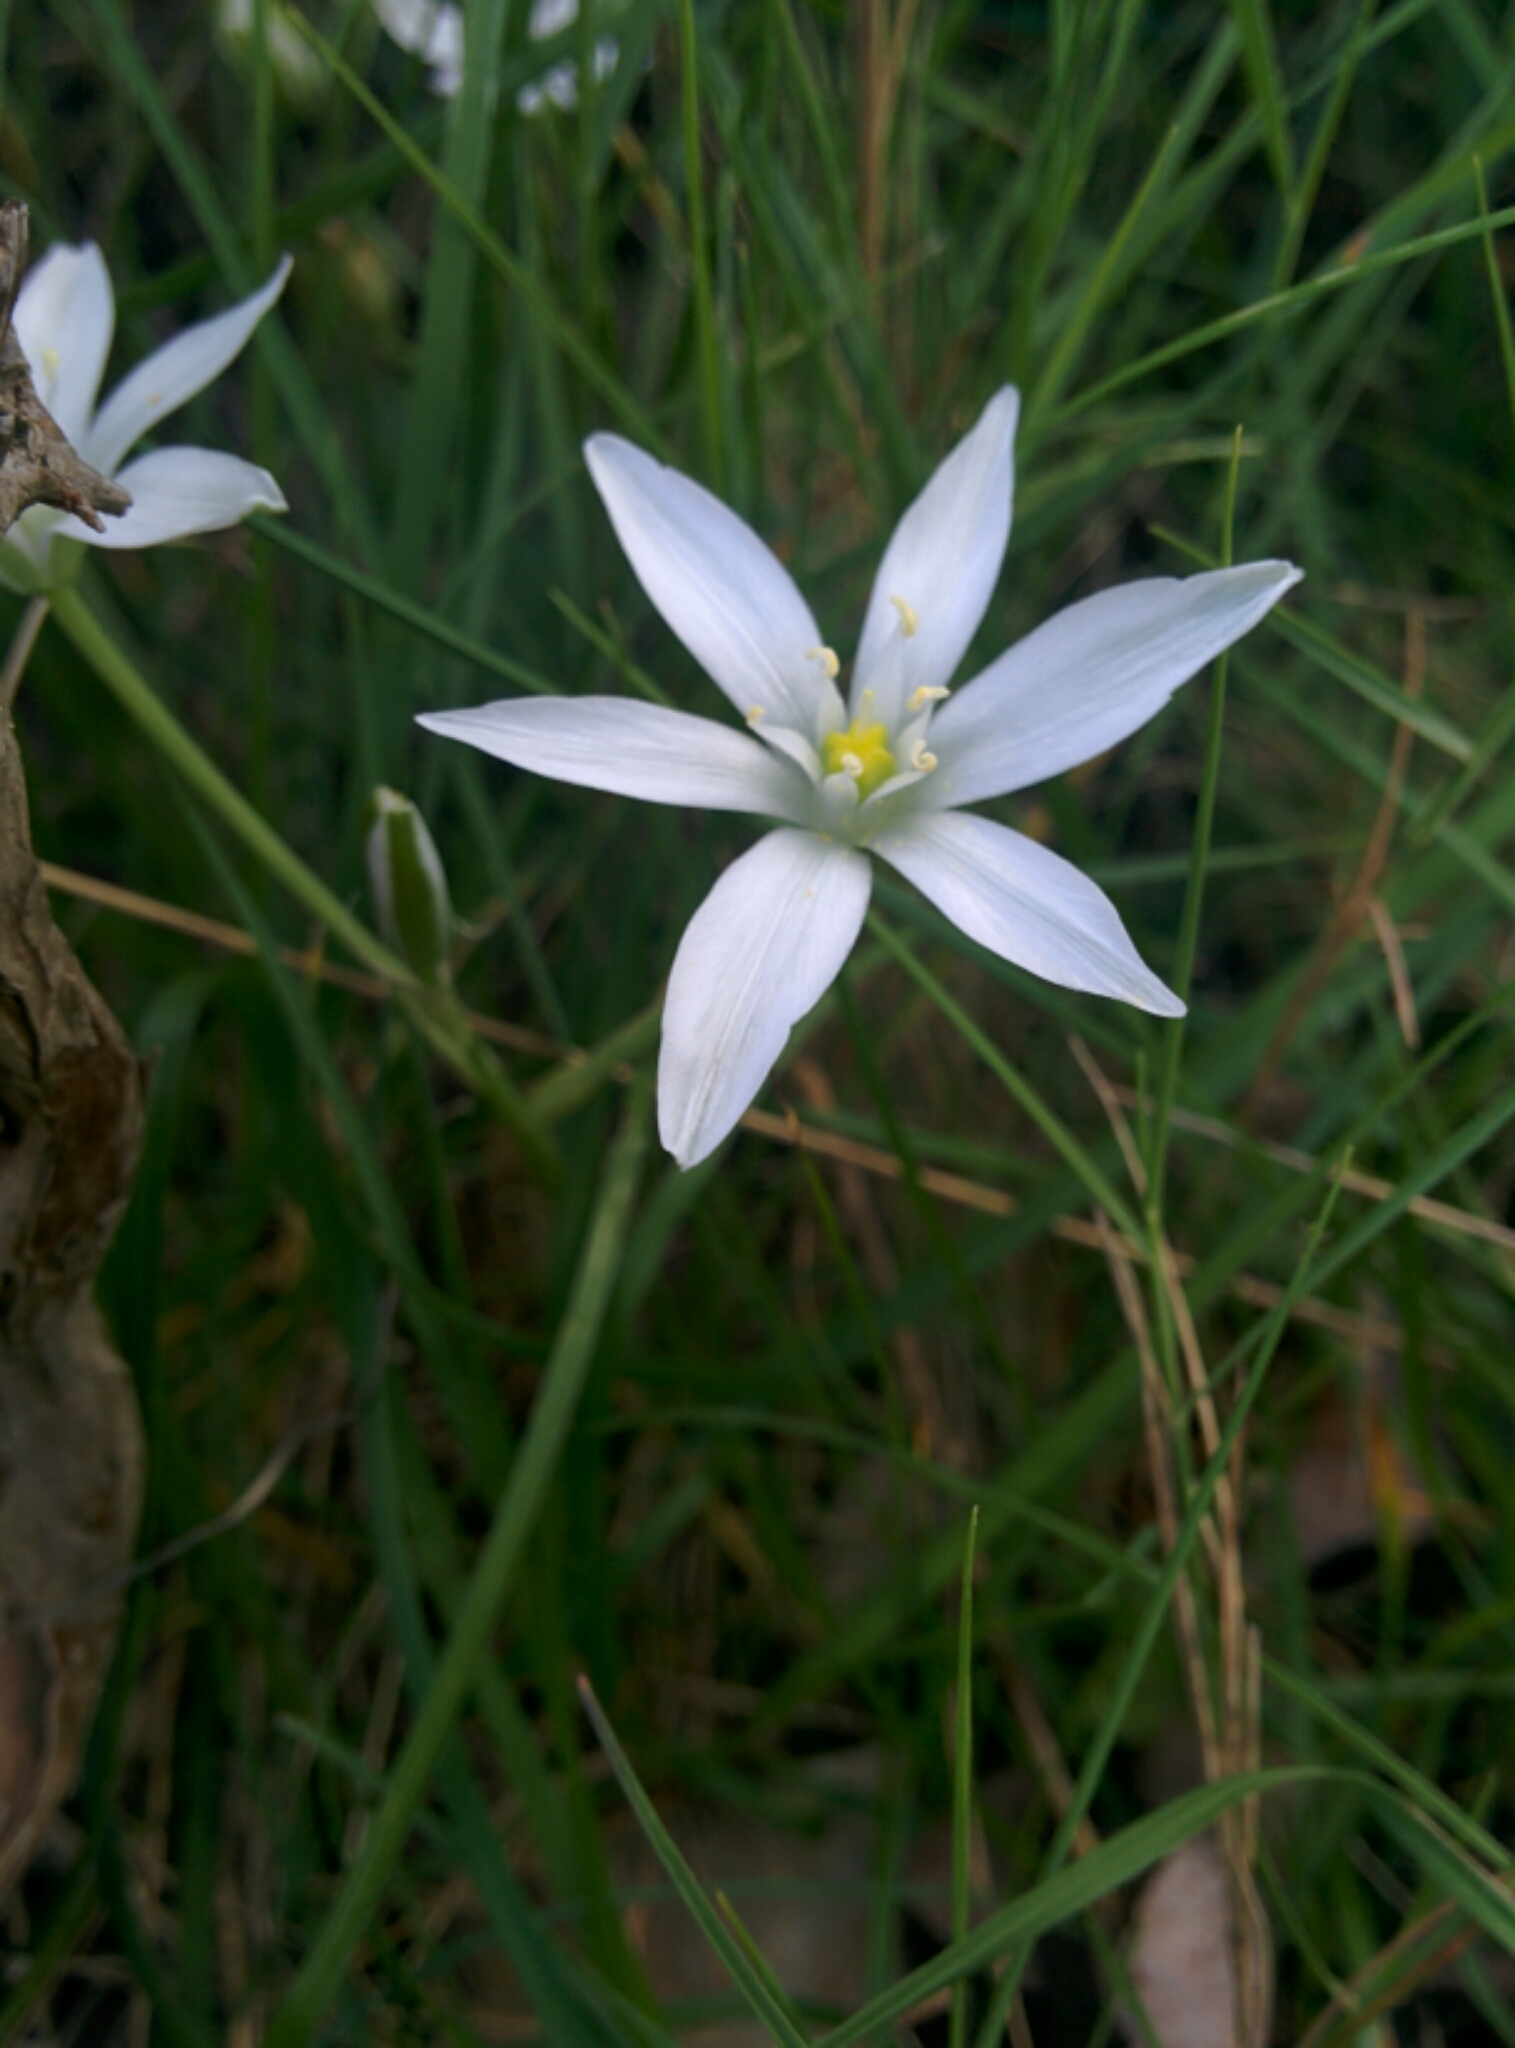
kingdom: Plantae
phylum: Tracheophyta
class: Liliopsida
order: Asparagales
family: Asparagaceae
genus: Ornithogalum
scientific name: Ornithogalum umbellatum
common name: Garden star-of-bethlehem
